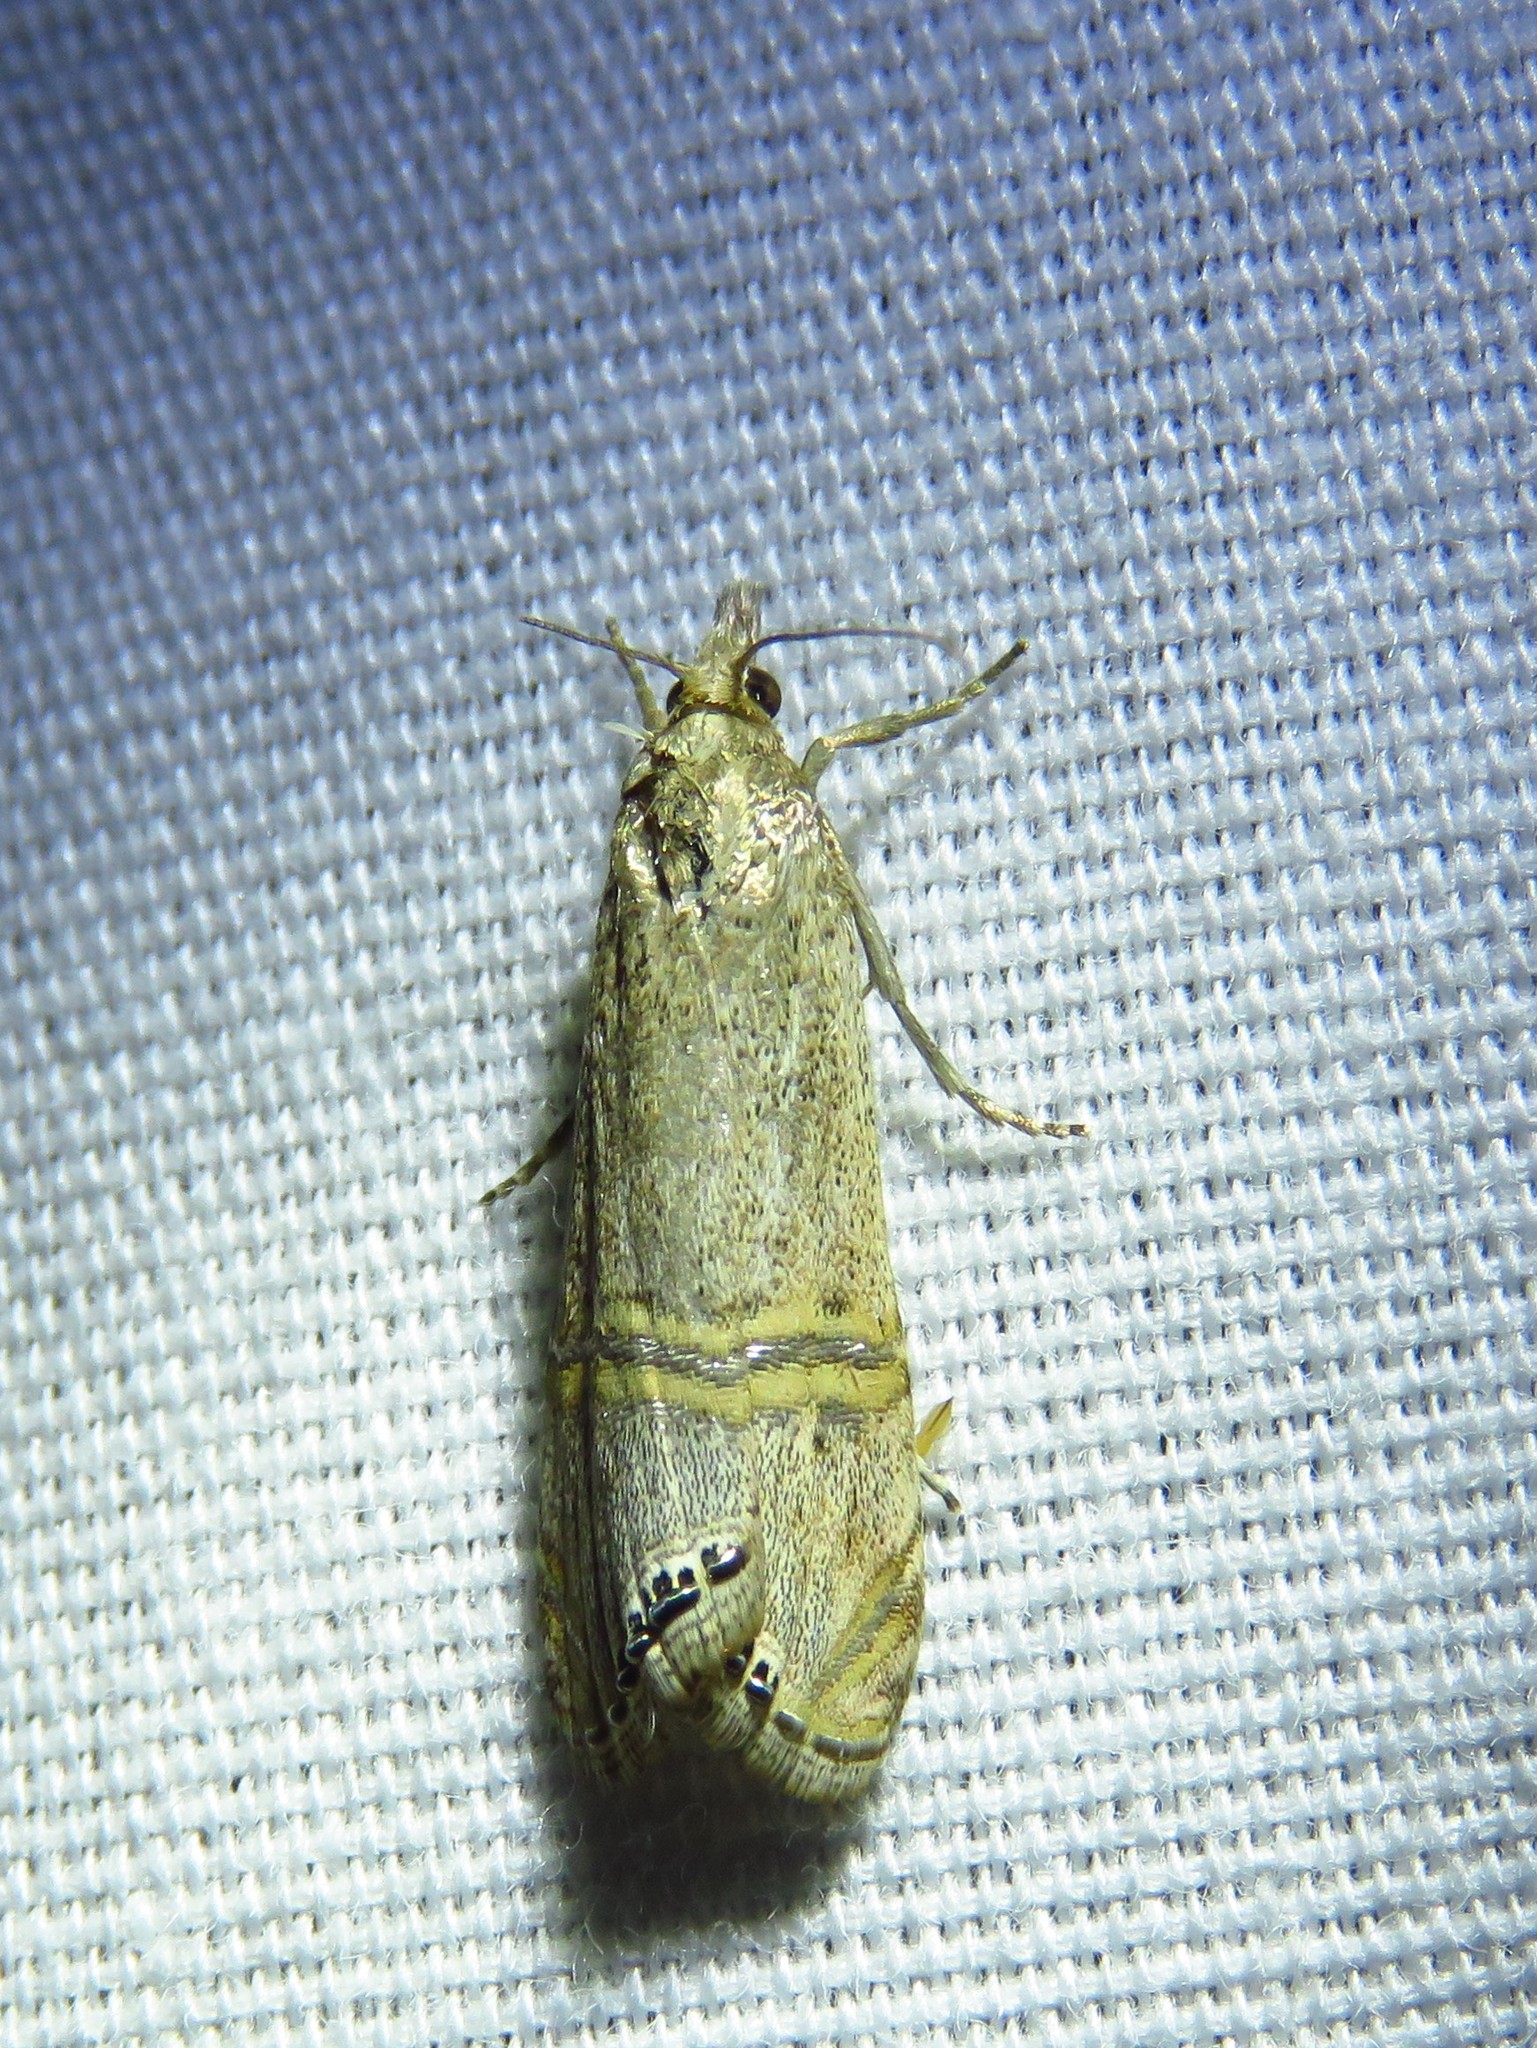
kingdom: Animalia
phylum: Arthropoda
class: Insecta
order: Lepidoptera
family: Crambidae
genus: Euchromius
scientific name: Euchromius ocellea
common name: Necklace veneer moth
